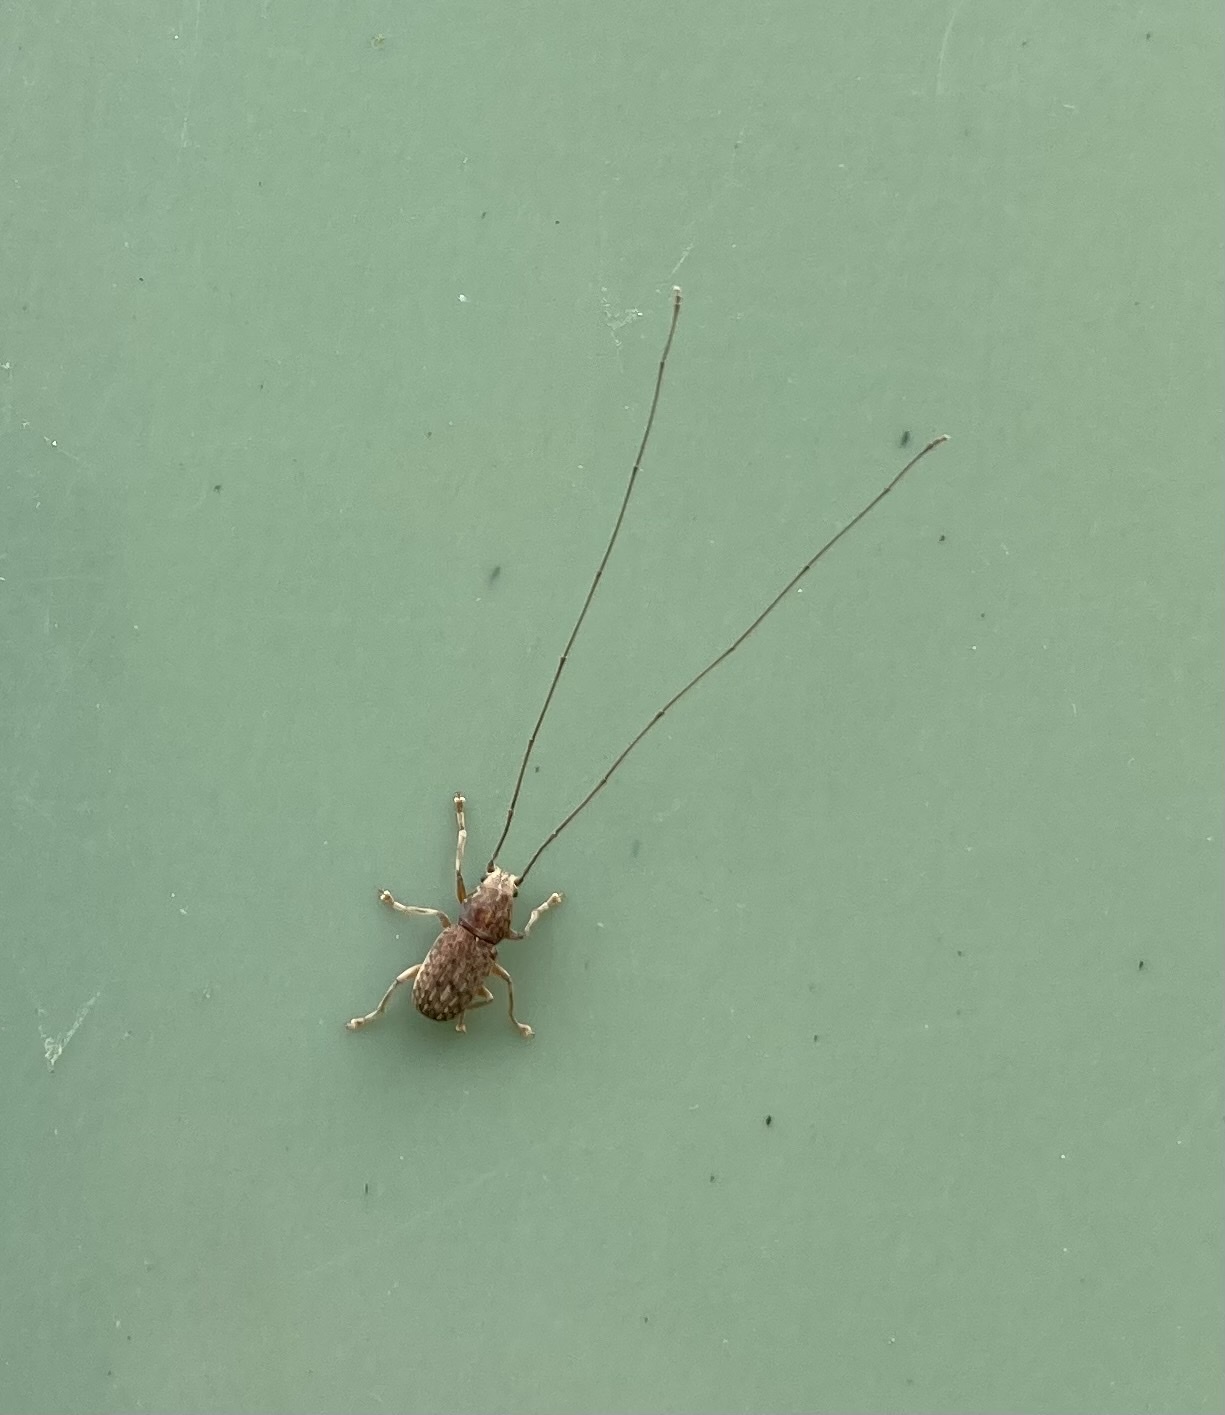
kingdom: Animalia
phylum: Arthropoda
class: Insecta
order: Coleoptera
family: Anthribidae
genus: Arecopais
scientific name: Arecopais spectabilis
